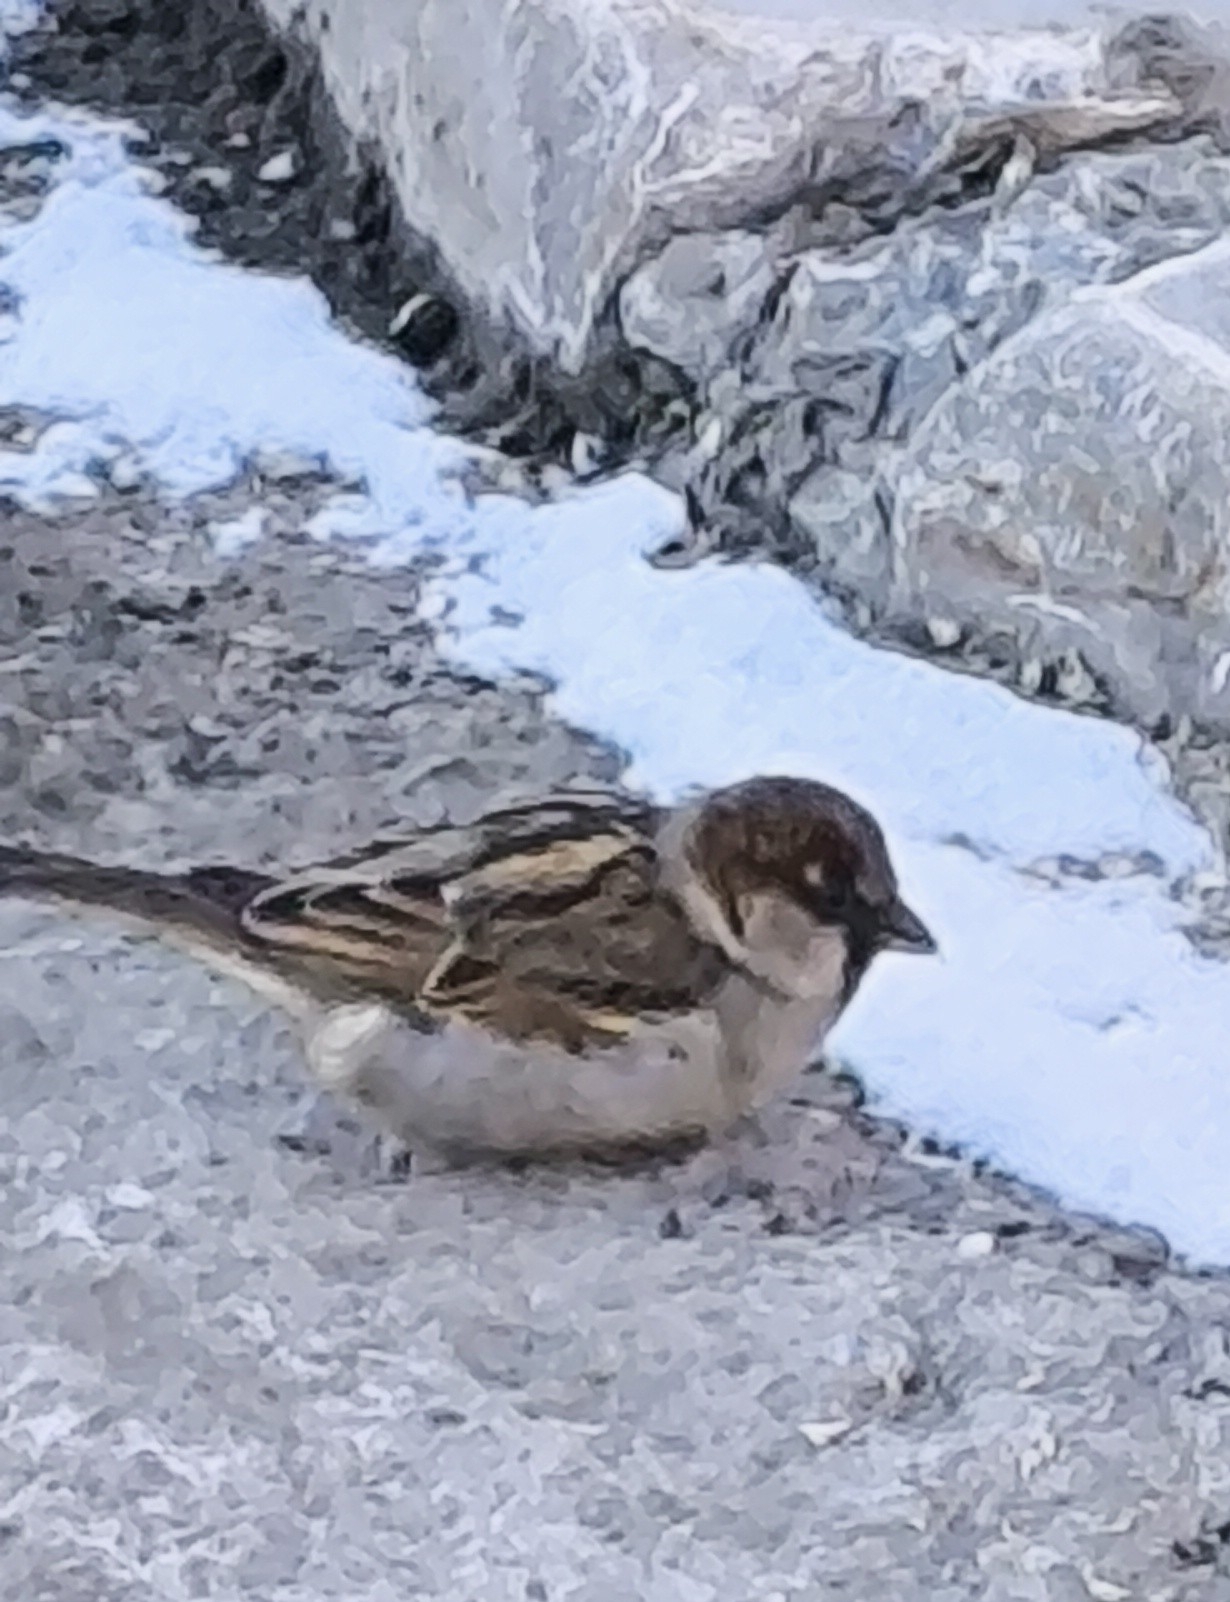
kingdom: Animalia
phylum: Chordata
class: Aves
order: Passeriformes
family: Passeridae
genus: Passer
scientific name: Passer domesticus
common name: House sparrow
